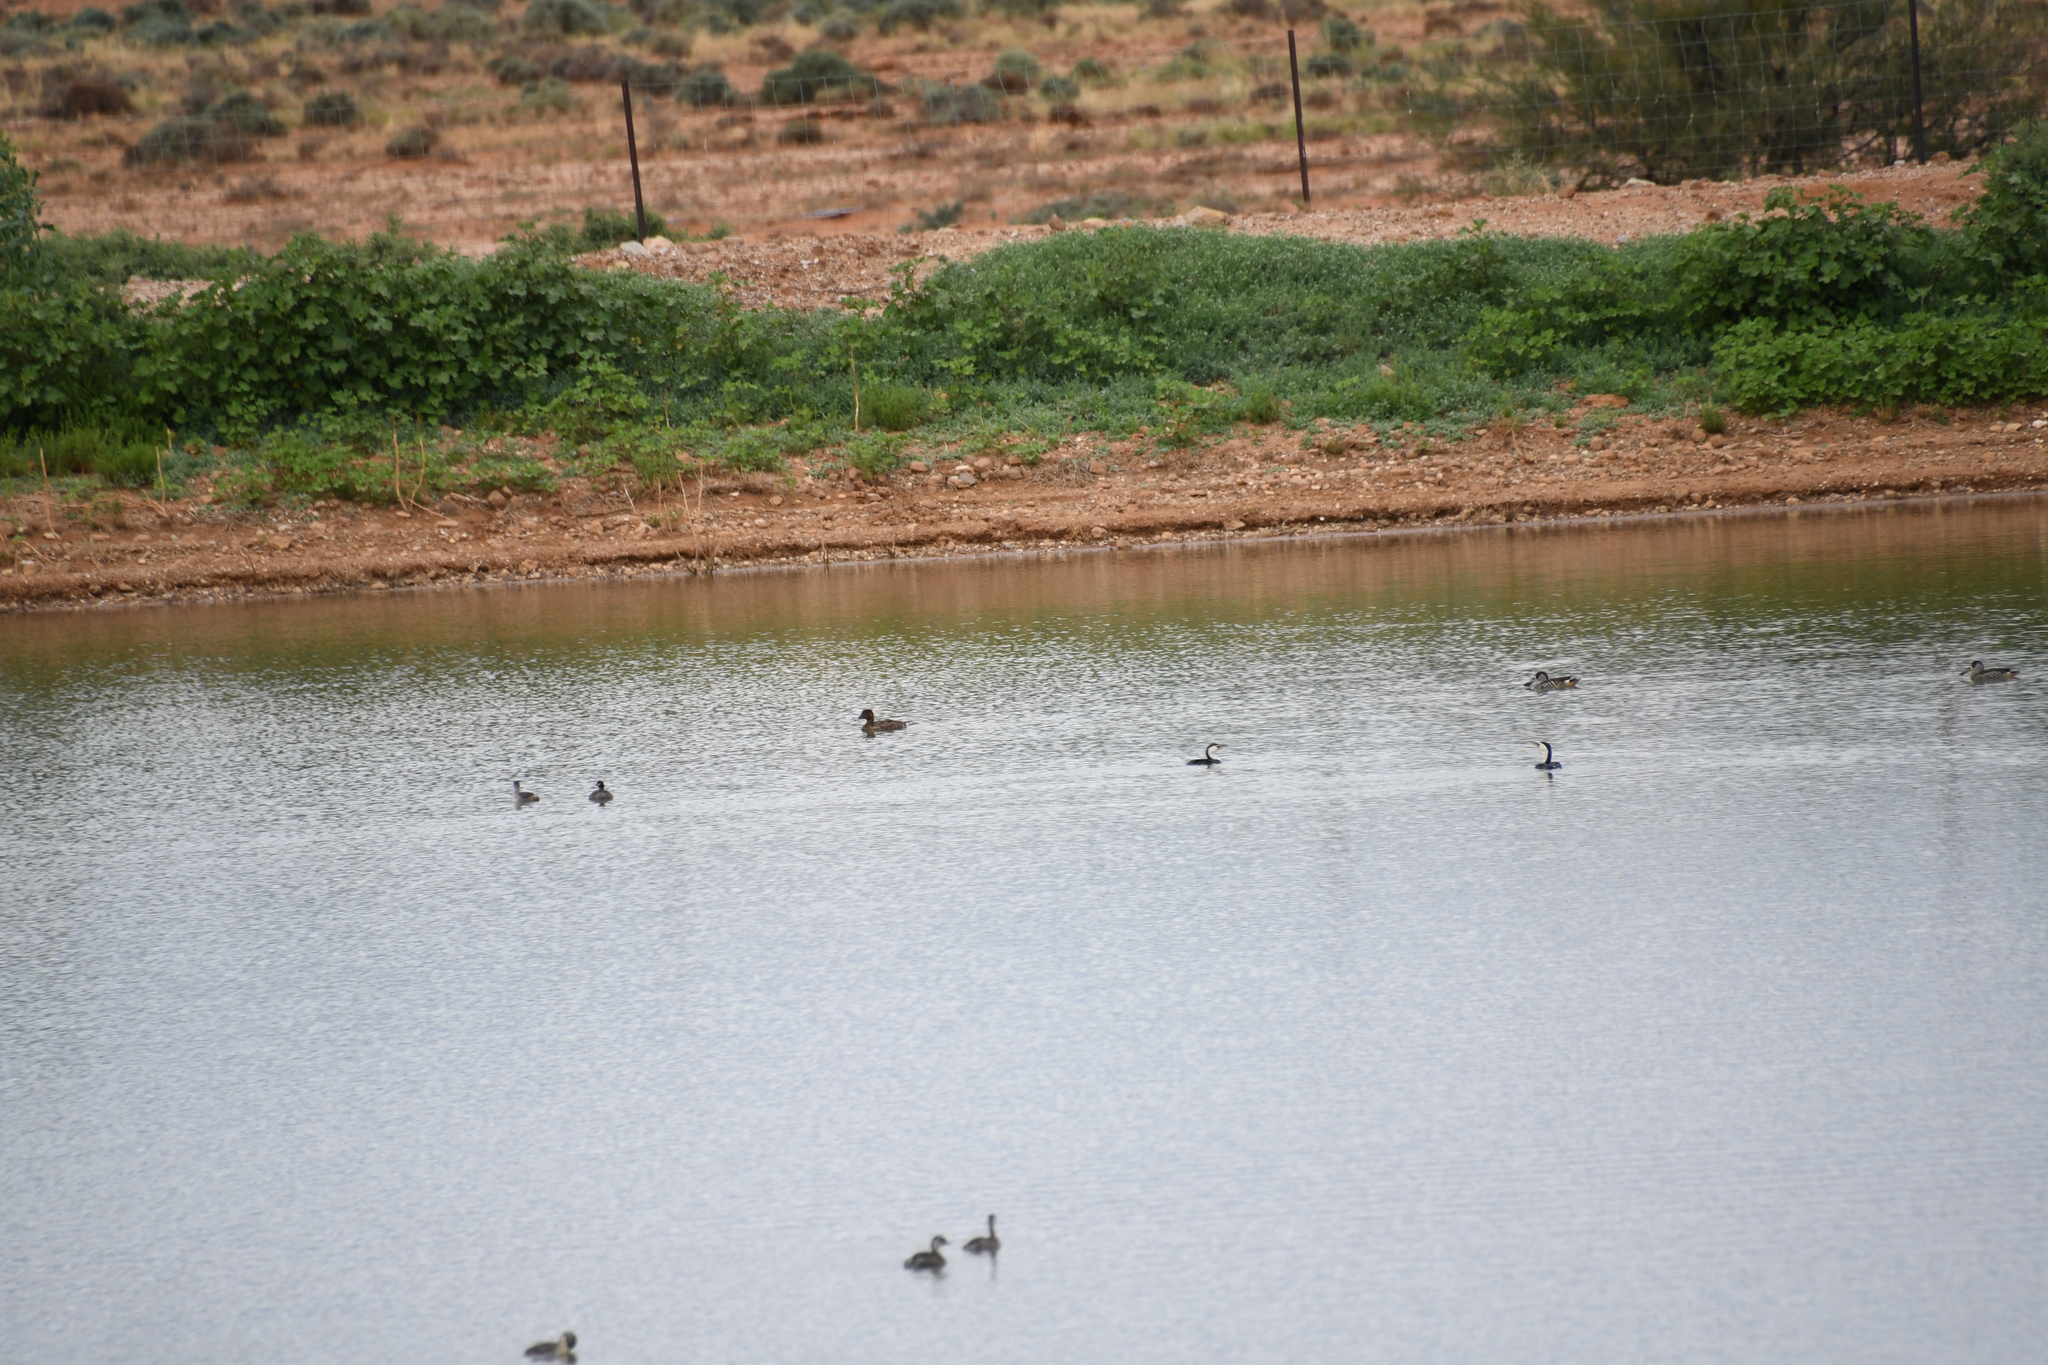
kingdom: Animalia
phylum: Chordata
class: Aves
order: Anseriformes
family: Anatidae
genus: Aythya
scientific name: Aythya australis
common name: Hardhead
